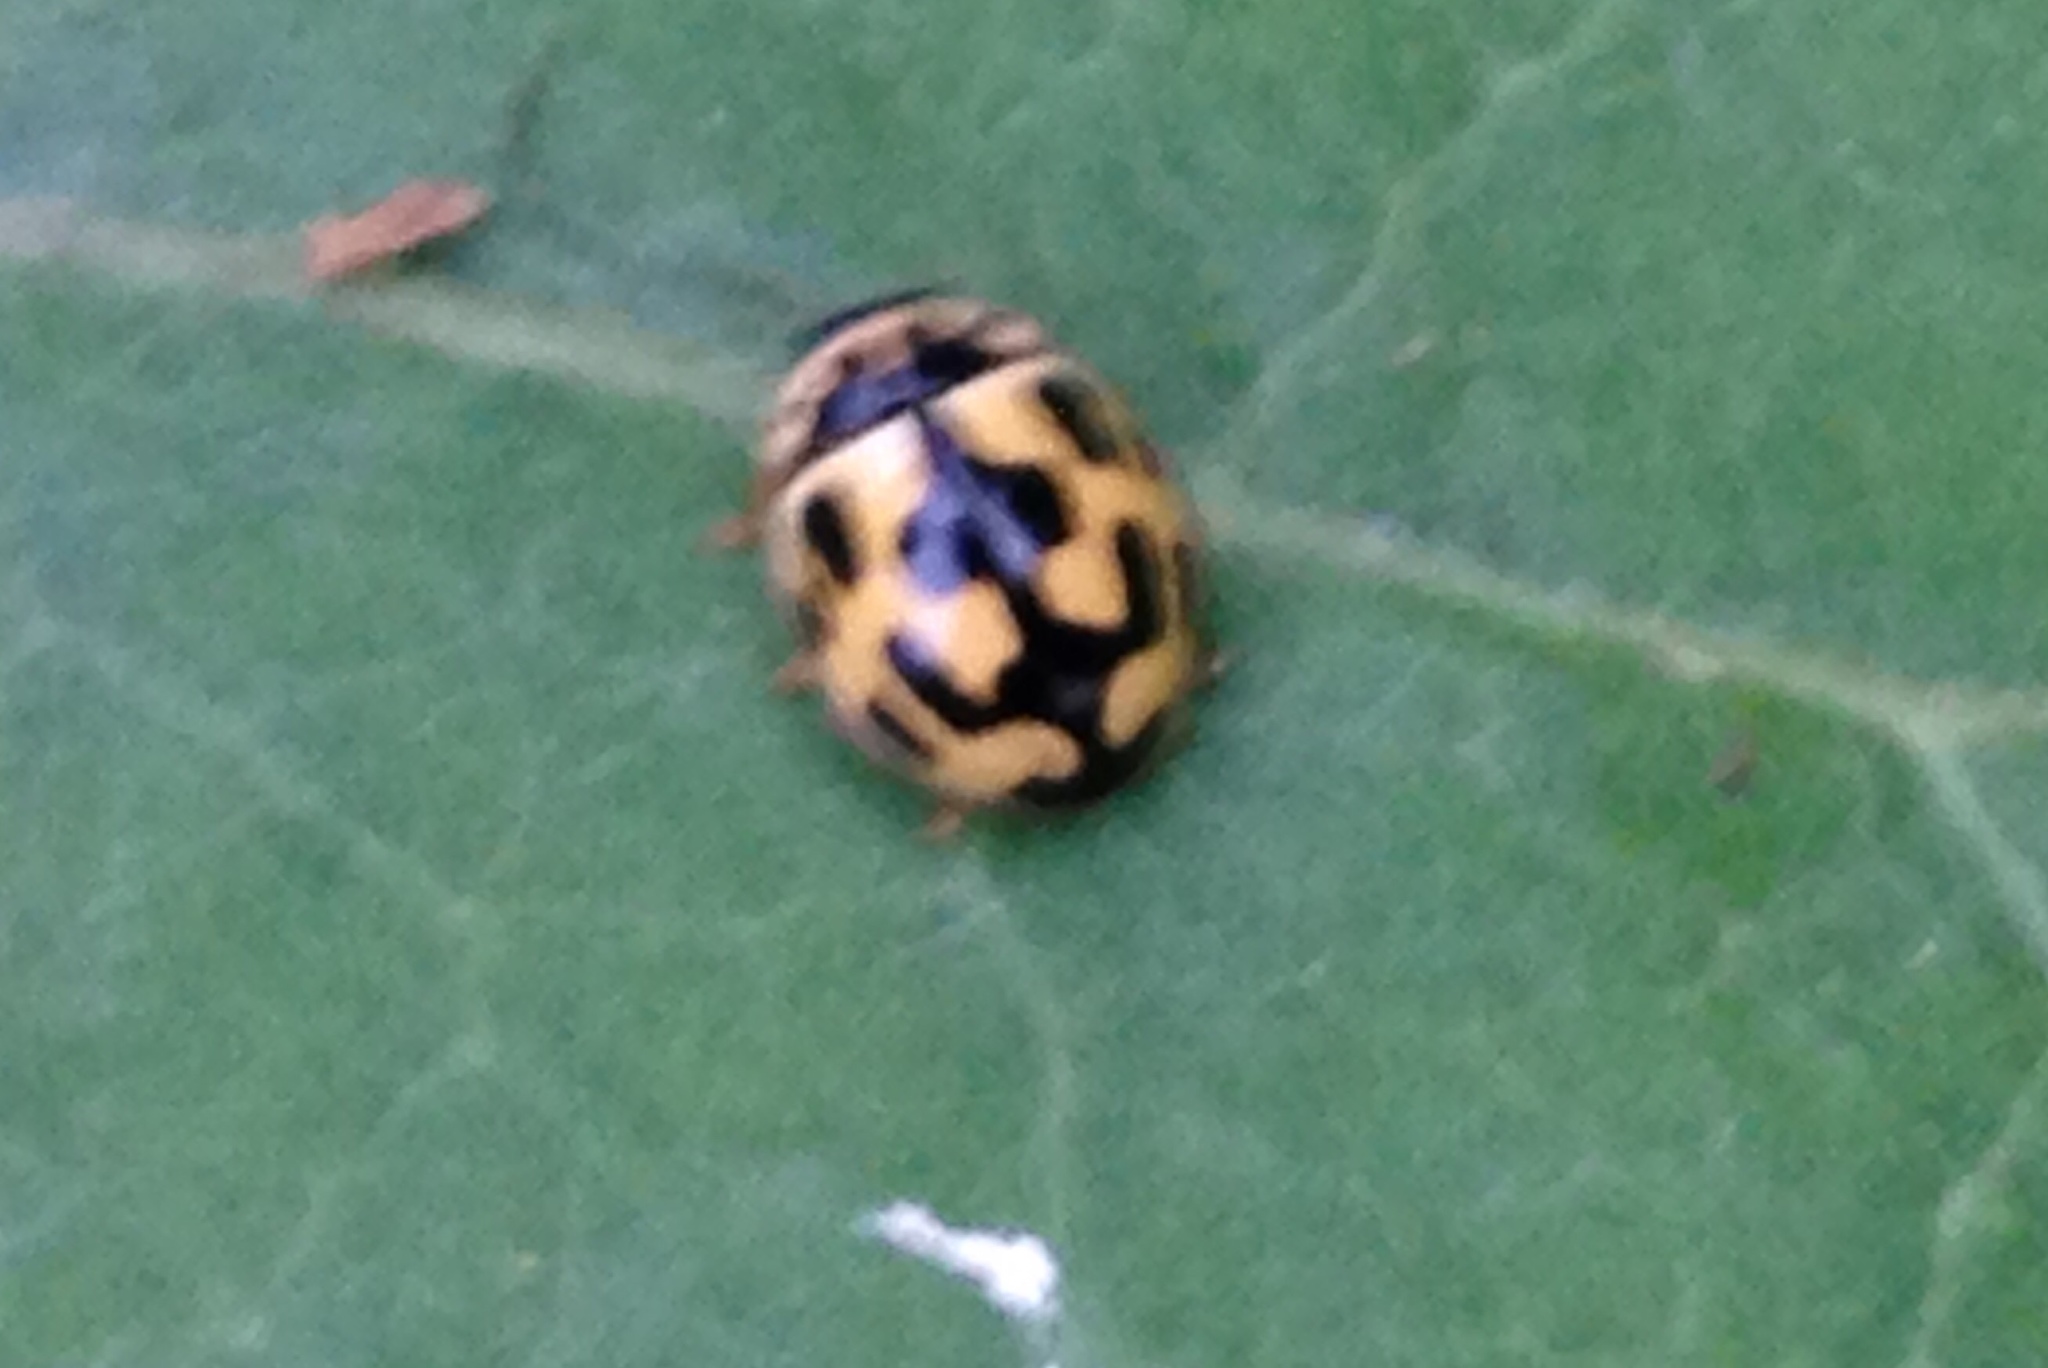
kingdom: Animalia
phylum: Arthropoda
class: Insecta
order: Coleoptera
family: Coccinellidae
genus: Propylaea
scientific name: Propylaea quatuordecimpunctata
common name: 14-spotted ladybird beetle
